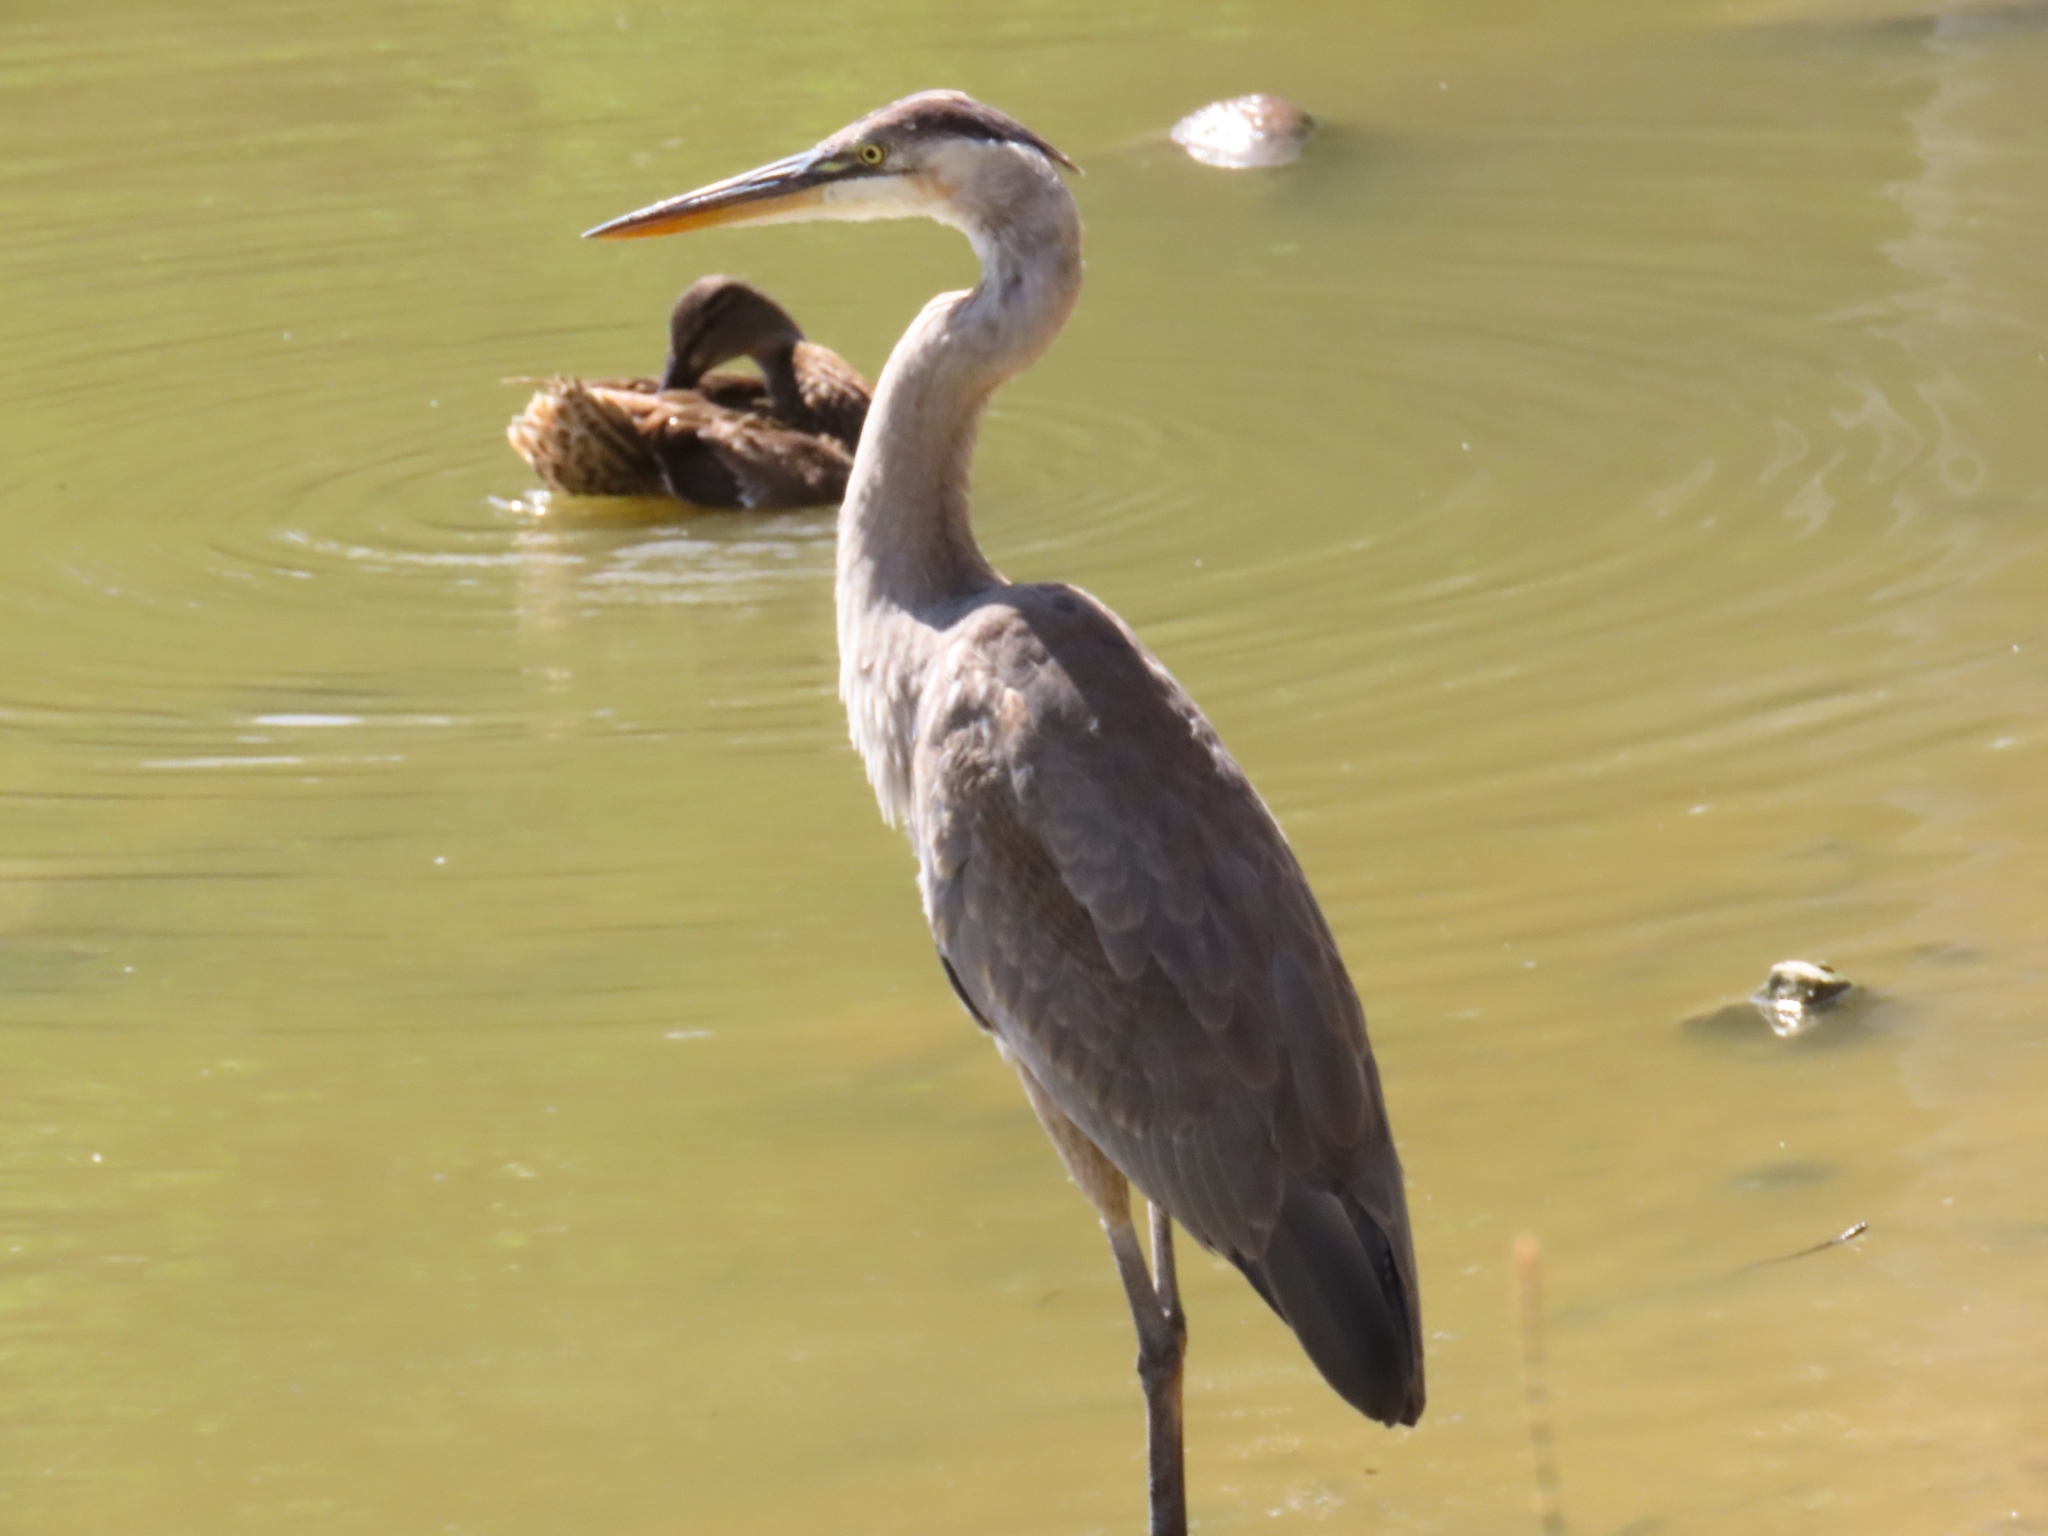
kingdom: Animalia
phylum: Chordata
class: Aves
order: Pelecaniformes
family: Ardeidae
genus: Ardea
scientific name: Ardea herodias
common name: Great blue heron
